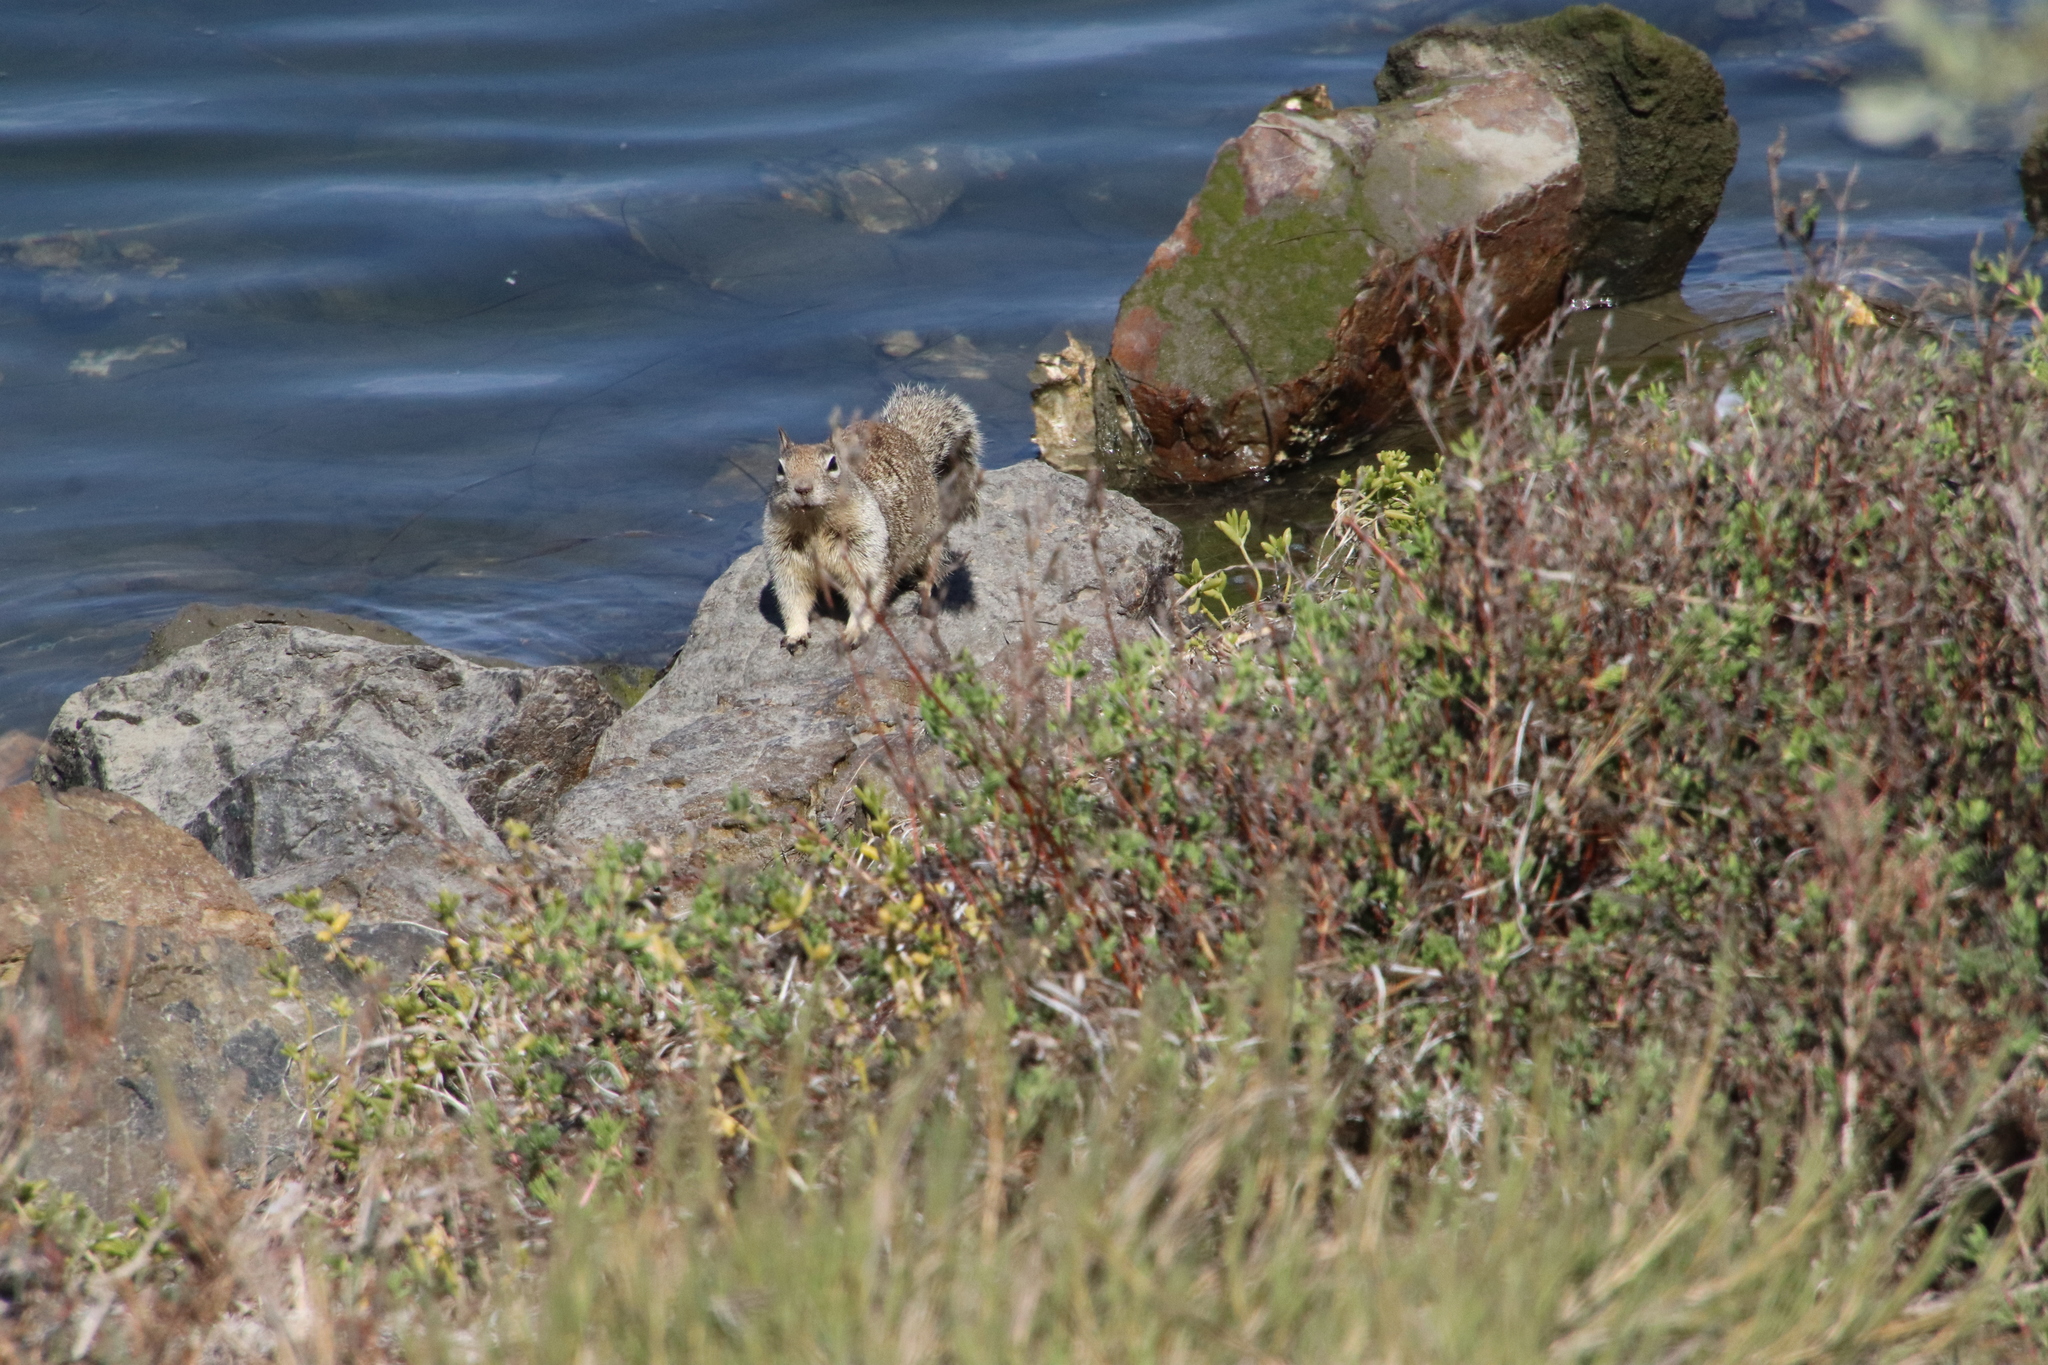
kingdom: Animalia
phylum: Chordata
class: Mammalia
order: Rodentia
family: Sciuridae
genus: Otospermophilus
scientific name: Otospermophilus beecheyi
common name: California ground squirrel
